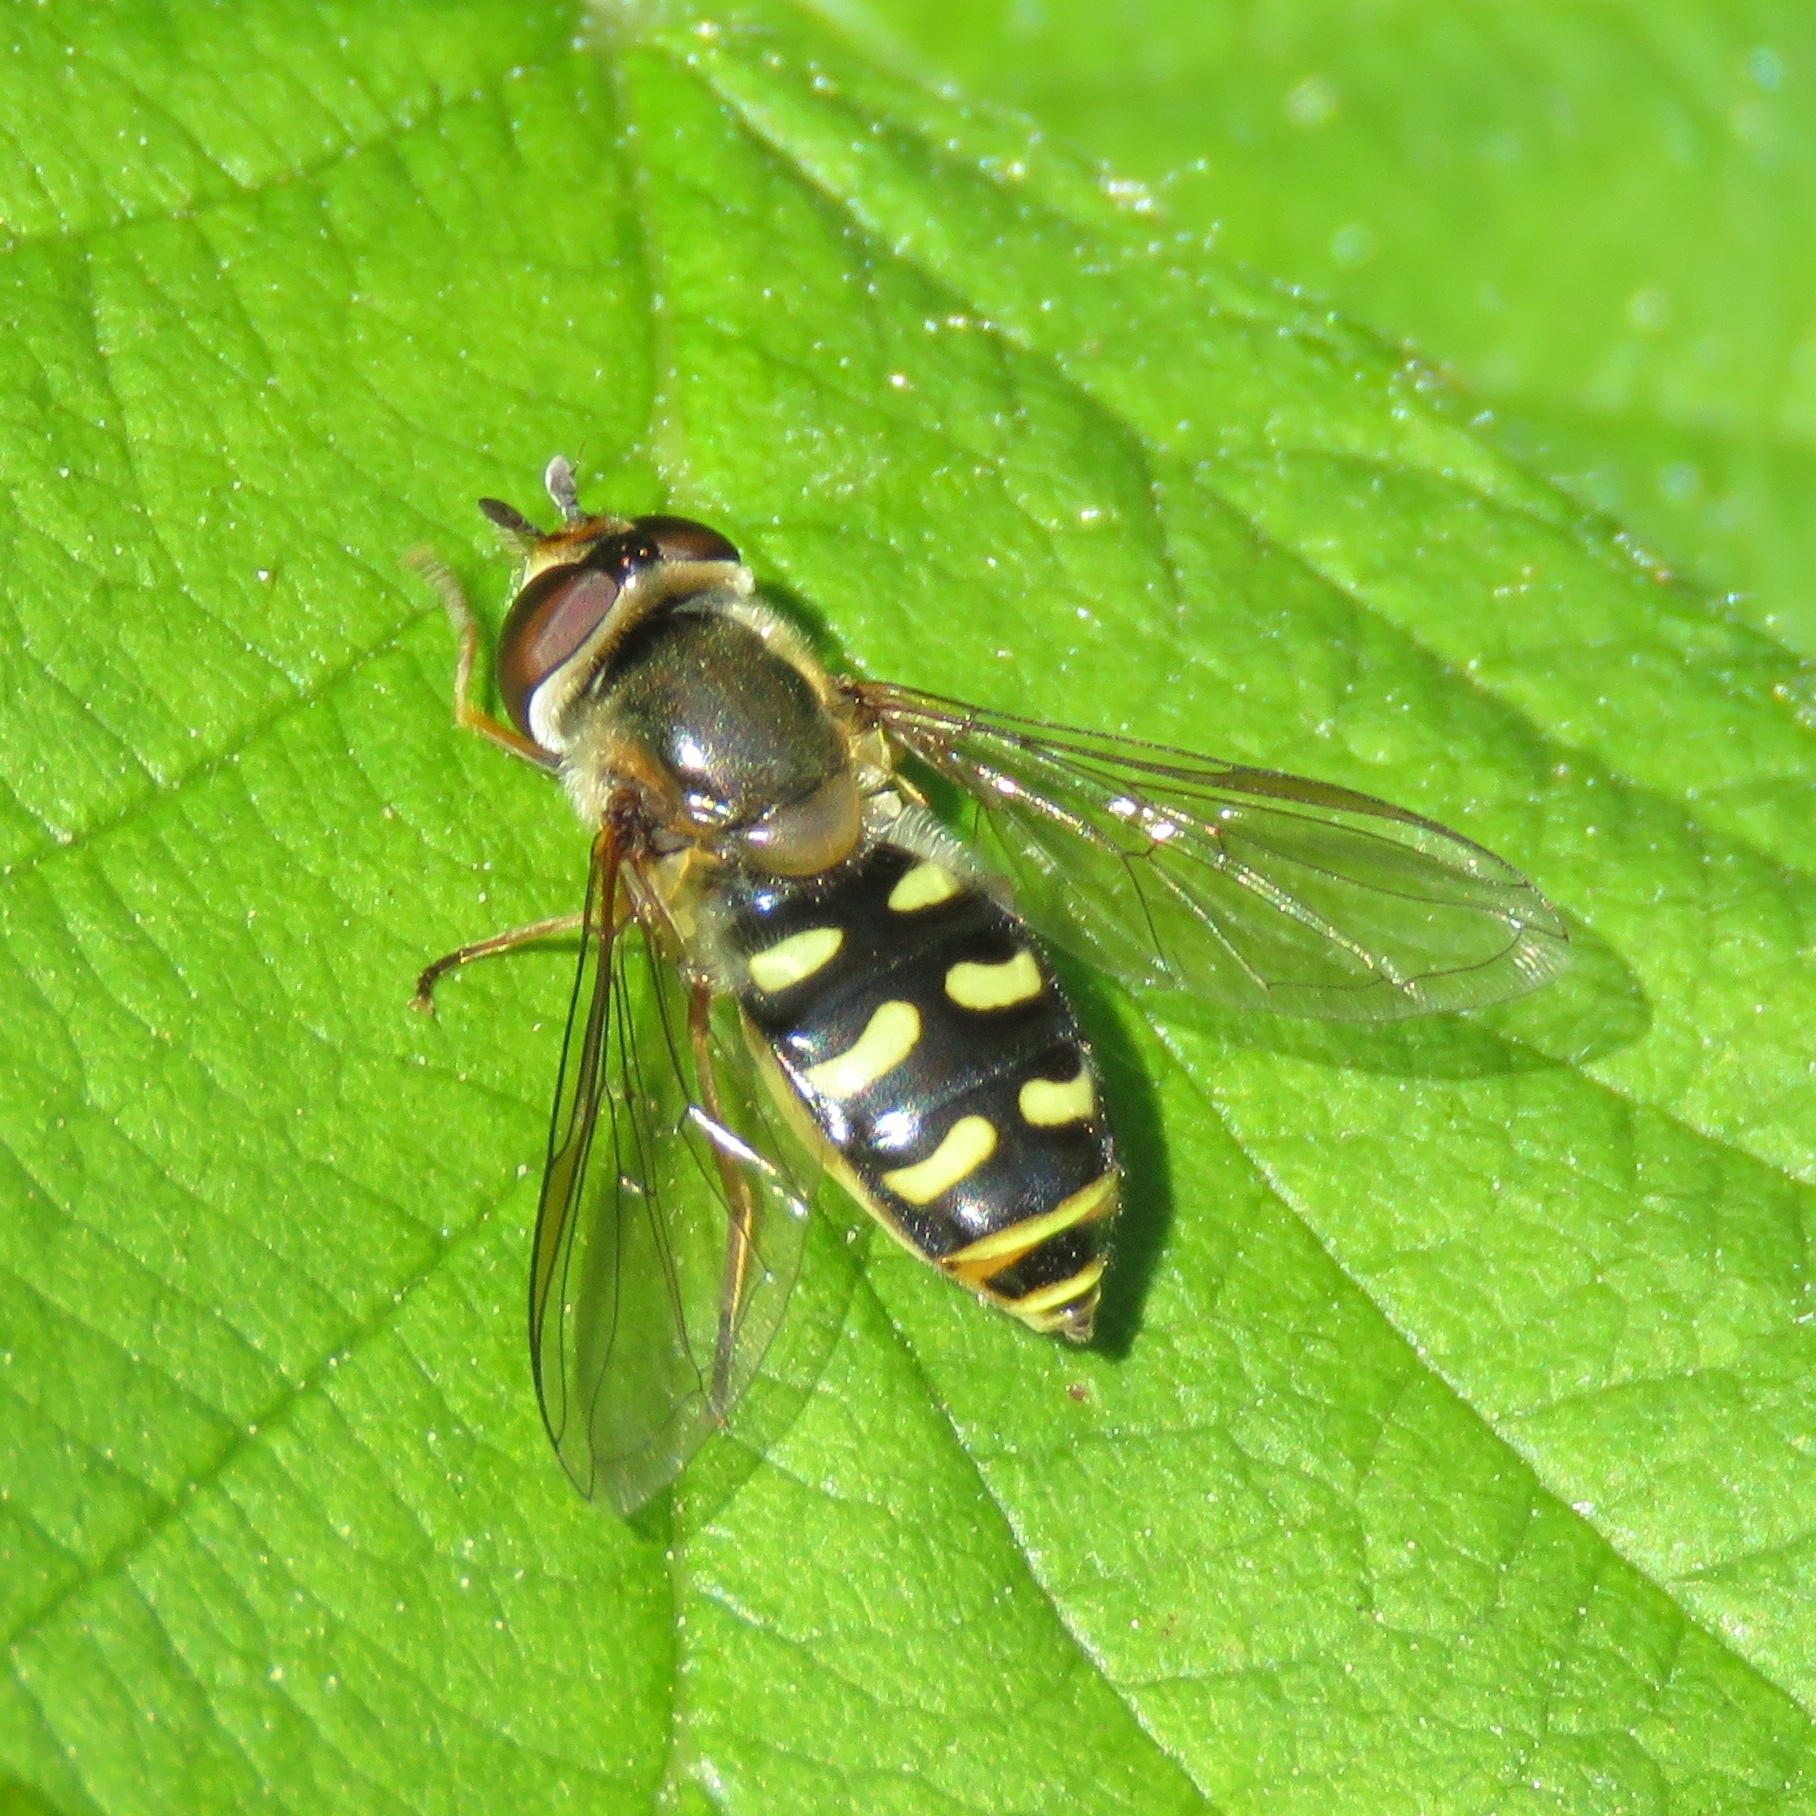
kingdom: Animalia
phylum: Arthropoda
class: Insecta
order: Diptera
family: Syrphidae
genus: Eupeodes
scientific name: Eupeodes luniger
